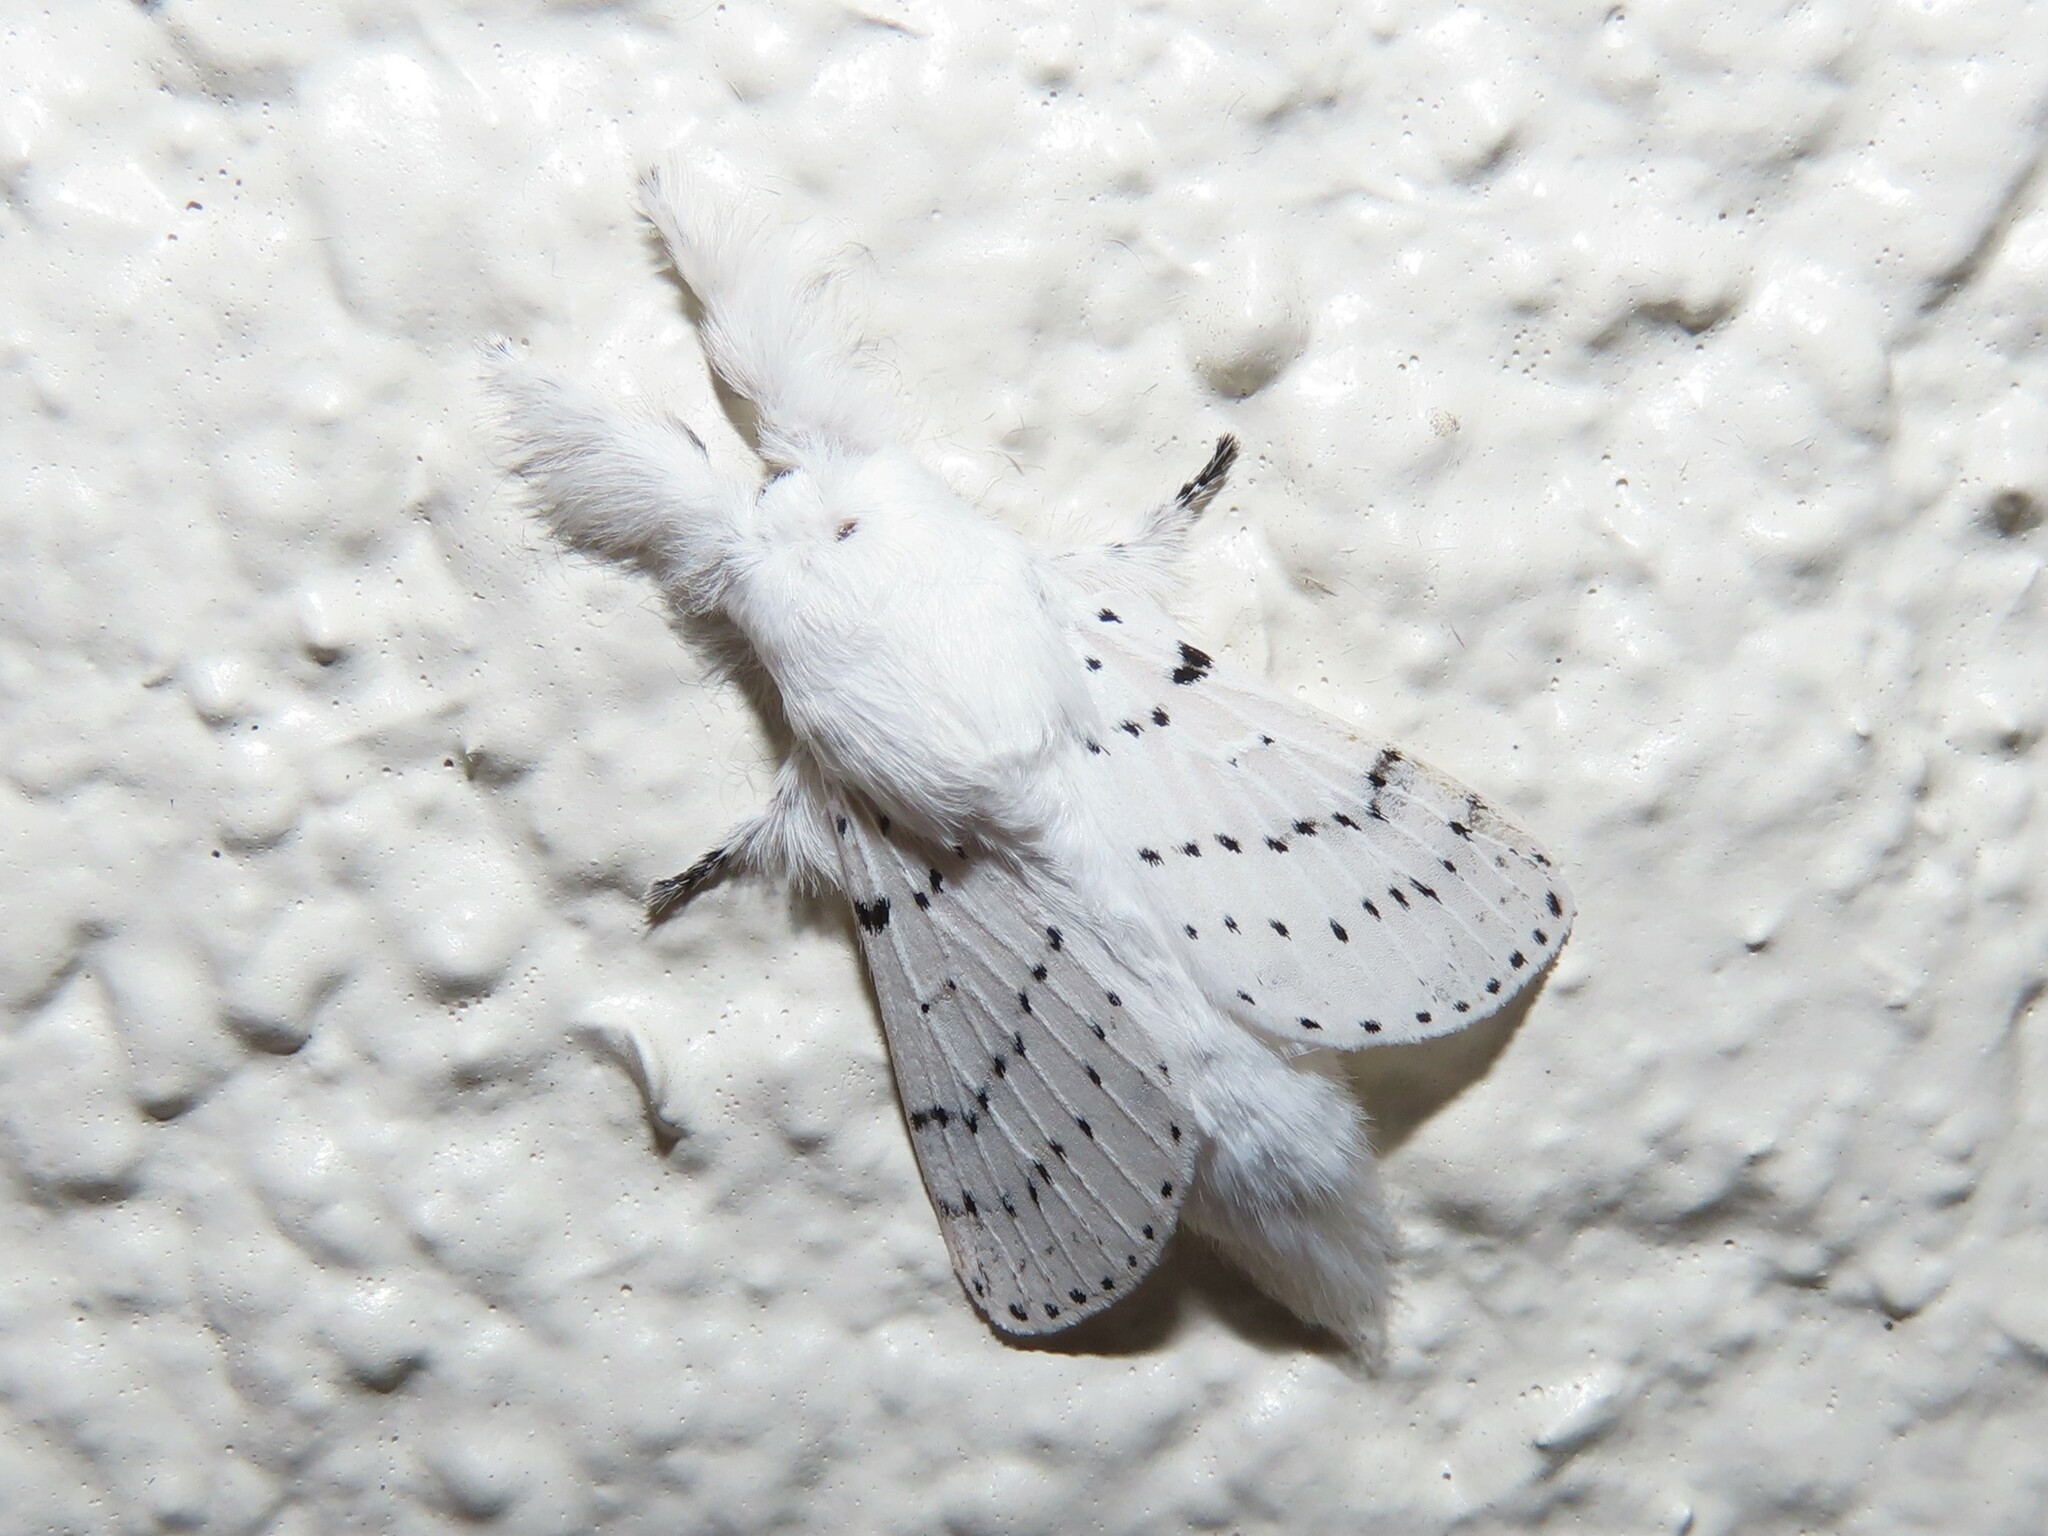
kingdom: Animalia
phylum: Arthropoda
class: Insecta
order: Lepidoptera
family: Lasiocampidae
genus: Artace
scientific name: Artace cribrarius
